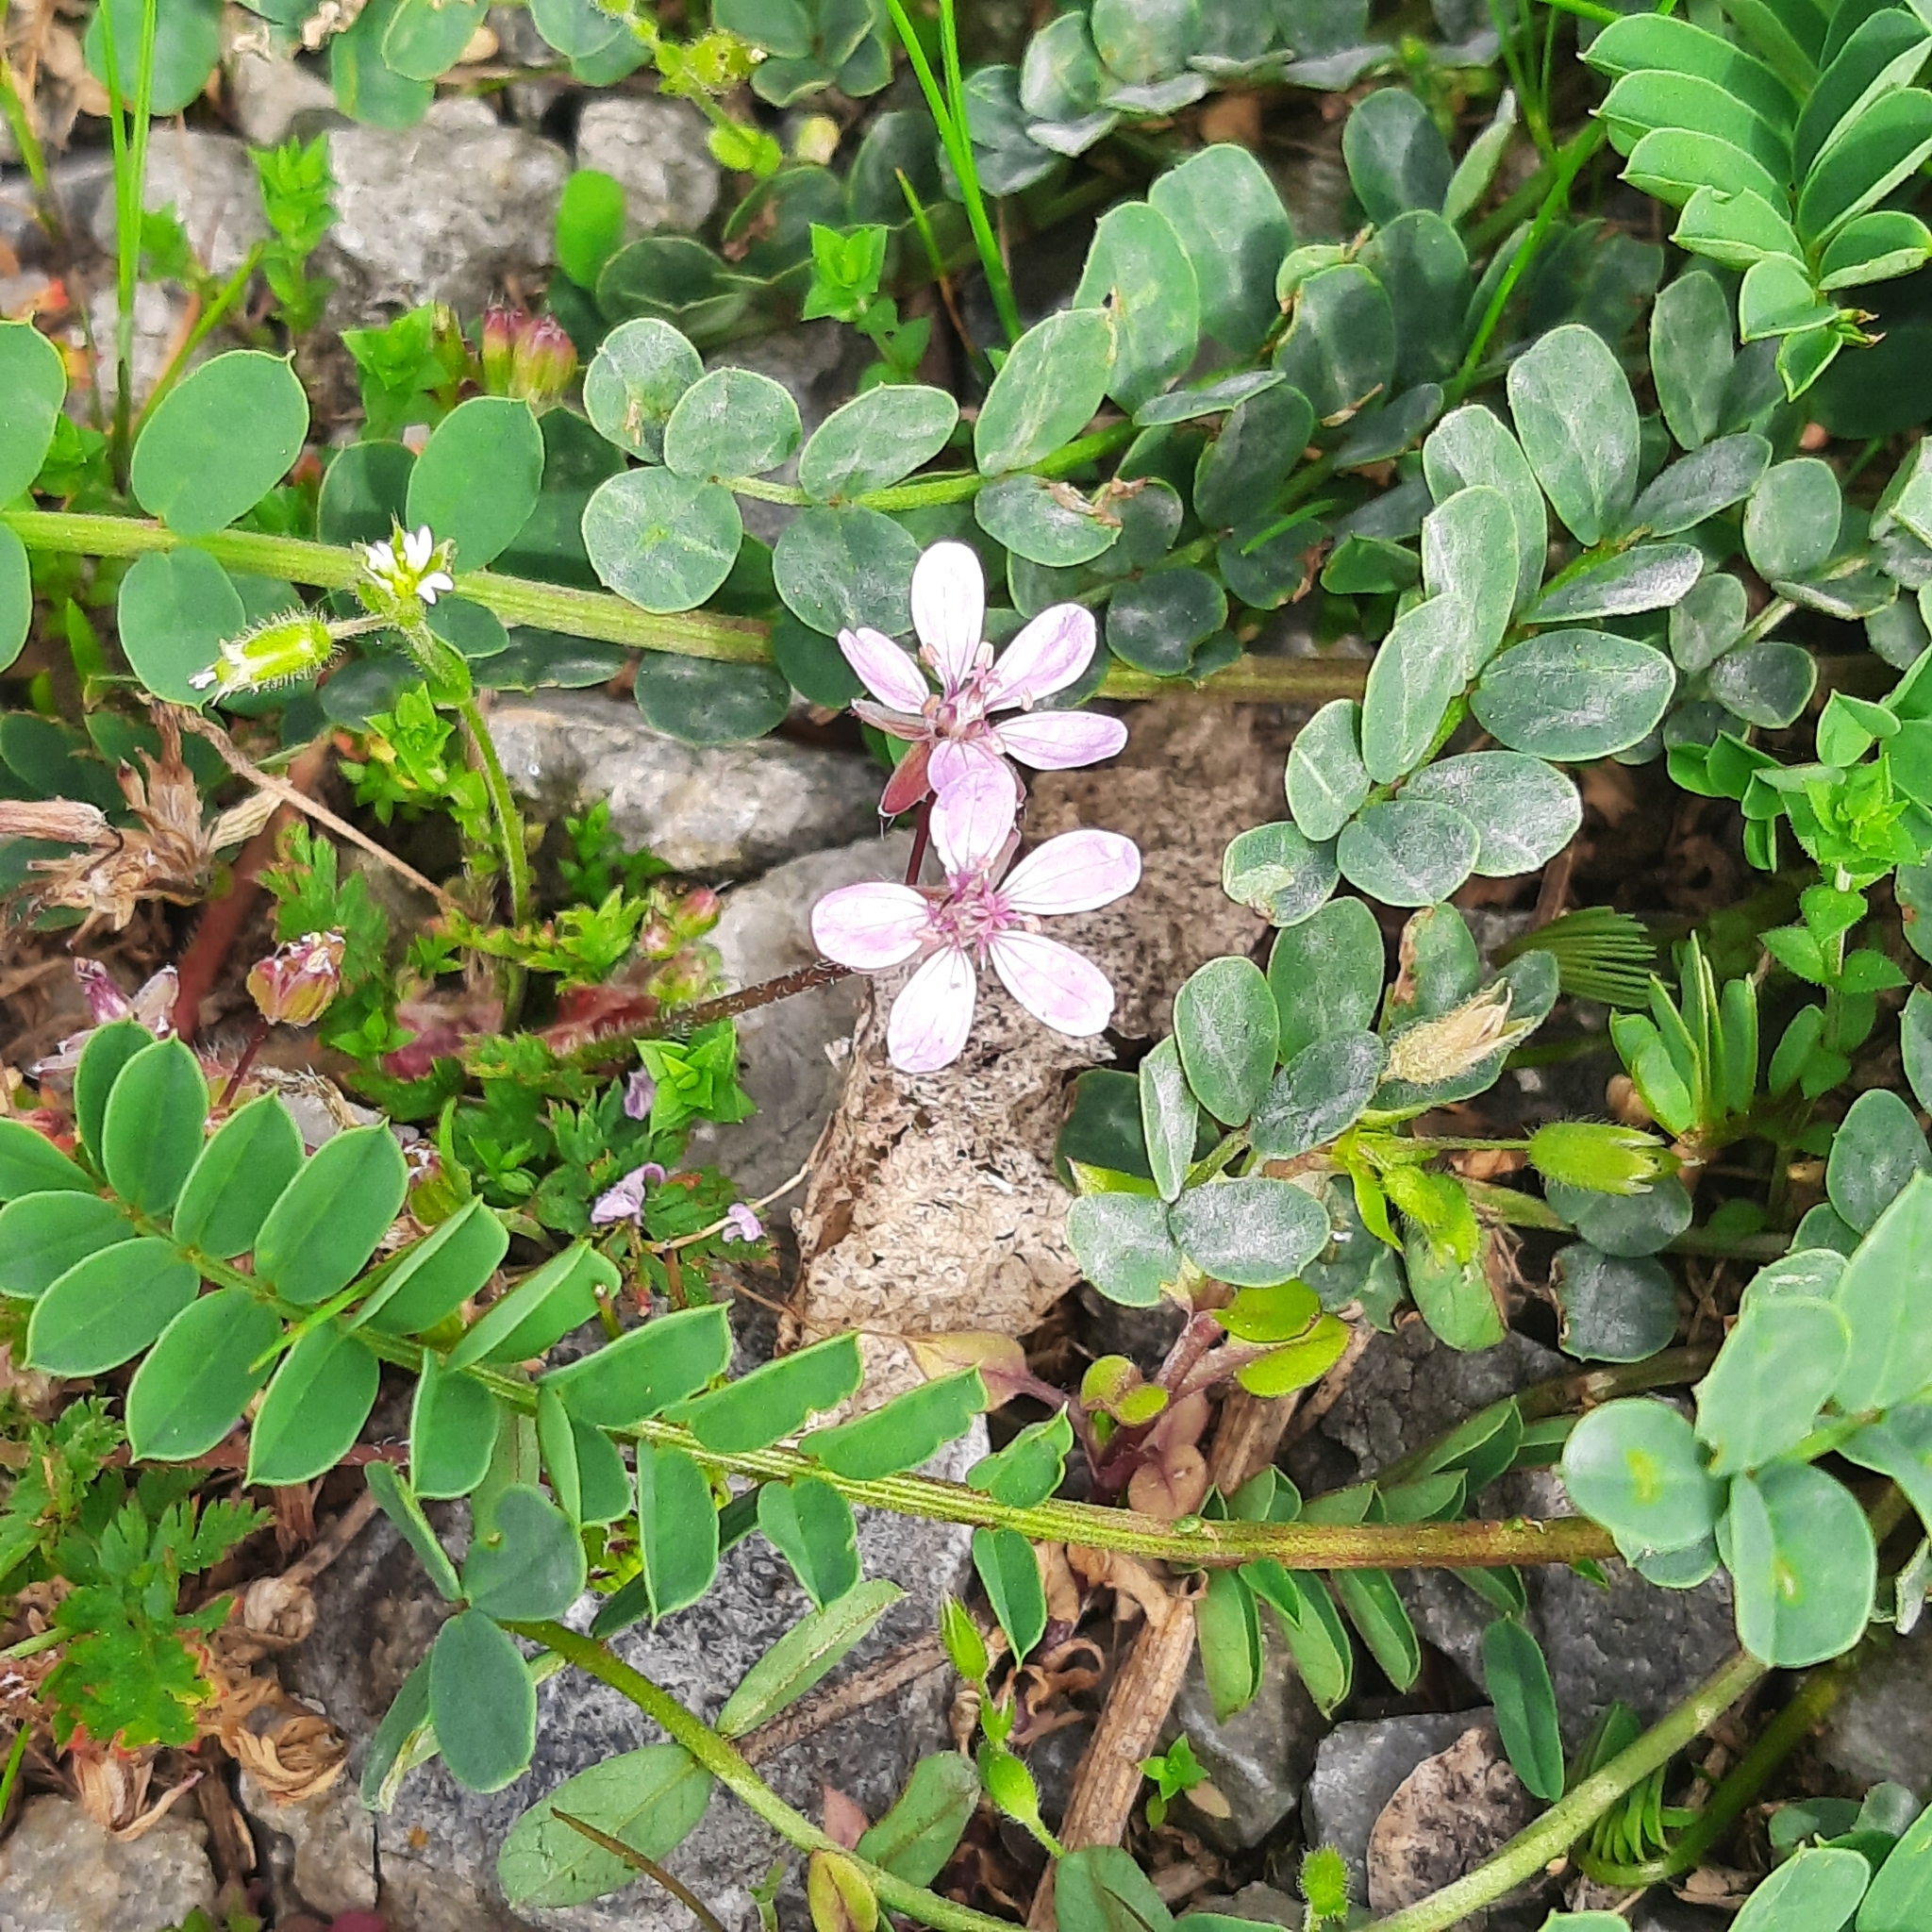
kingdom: Plantae
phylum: Tracheophyta
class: Magnoliopsida
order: Geraniales
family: Geraniaceae
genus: Erodium
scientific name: Erodium cicutarium
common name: Common stork's-bill
